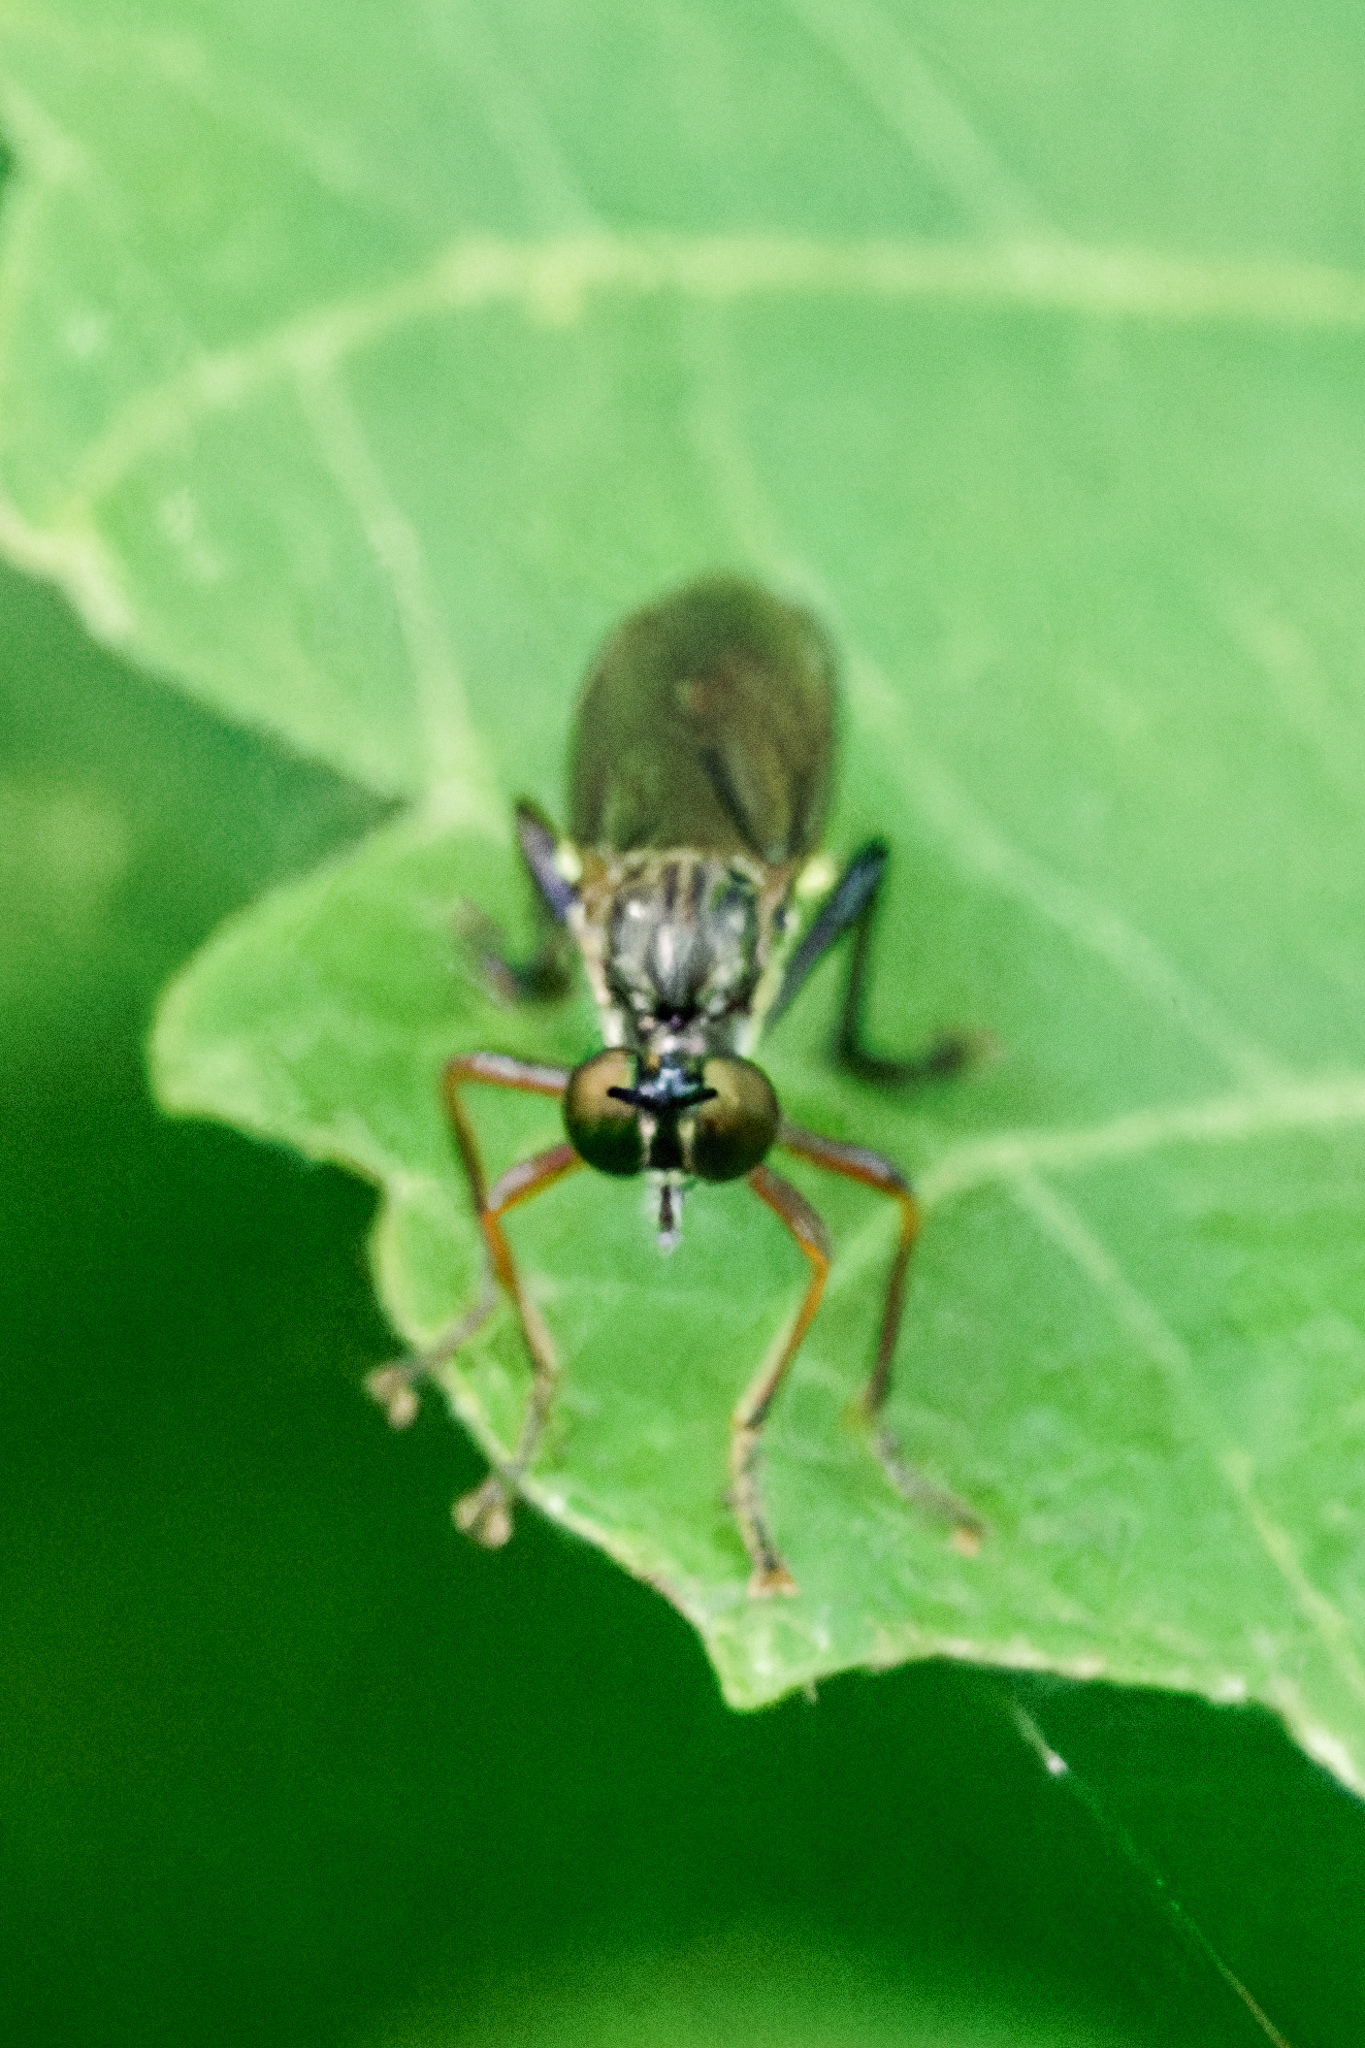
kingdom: Animalia
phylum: Arthropoda
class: Insecta
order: Diptera
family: Asilidae
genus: Dioctria
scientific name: Dioctria hyalipennis
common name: Stripe-legged robberfly
